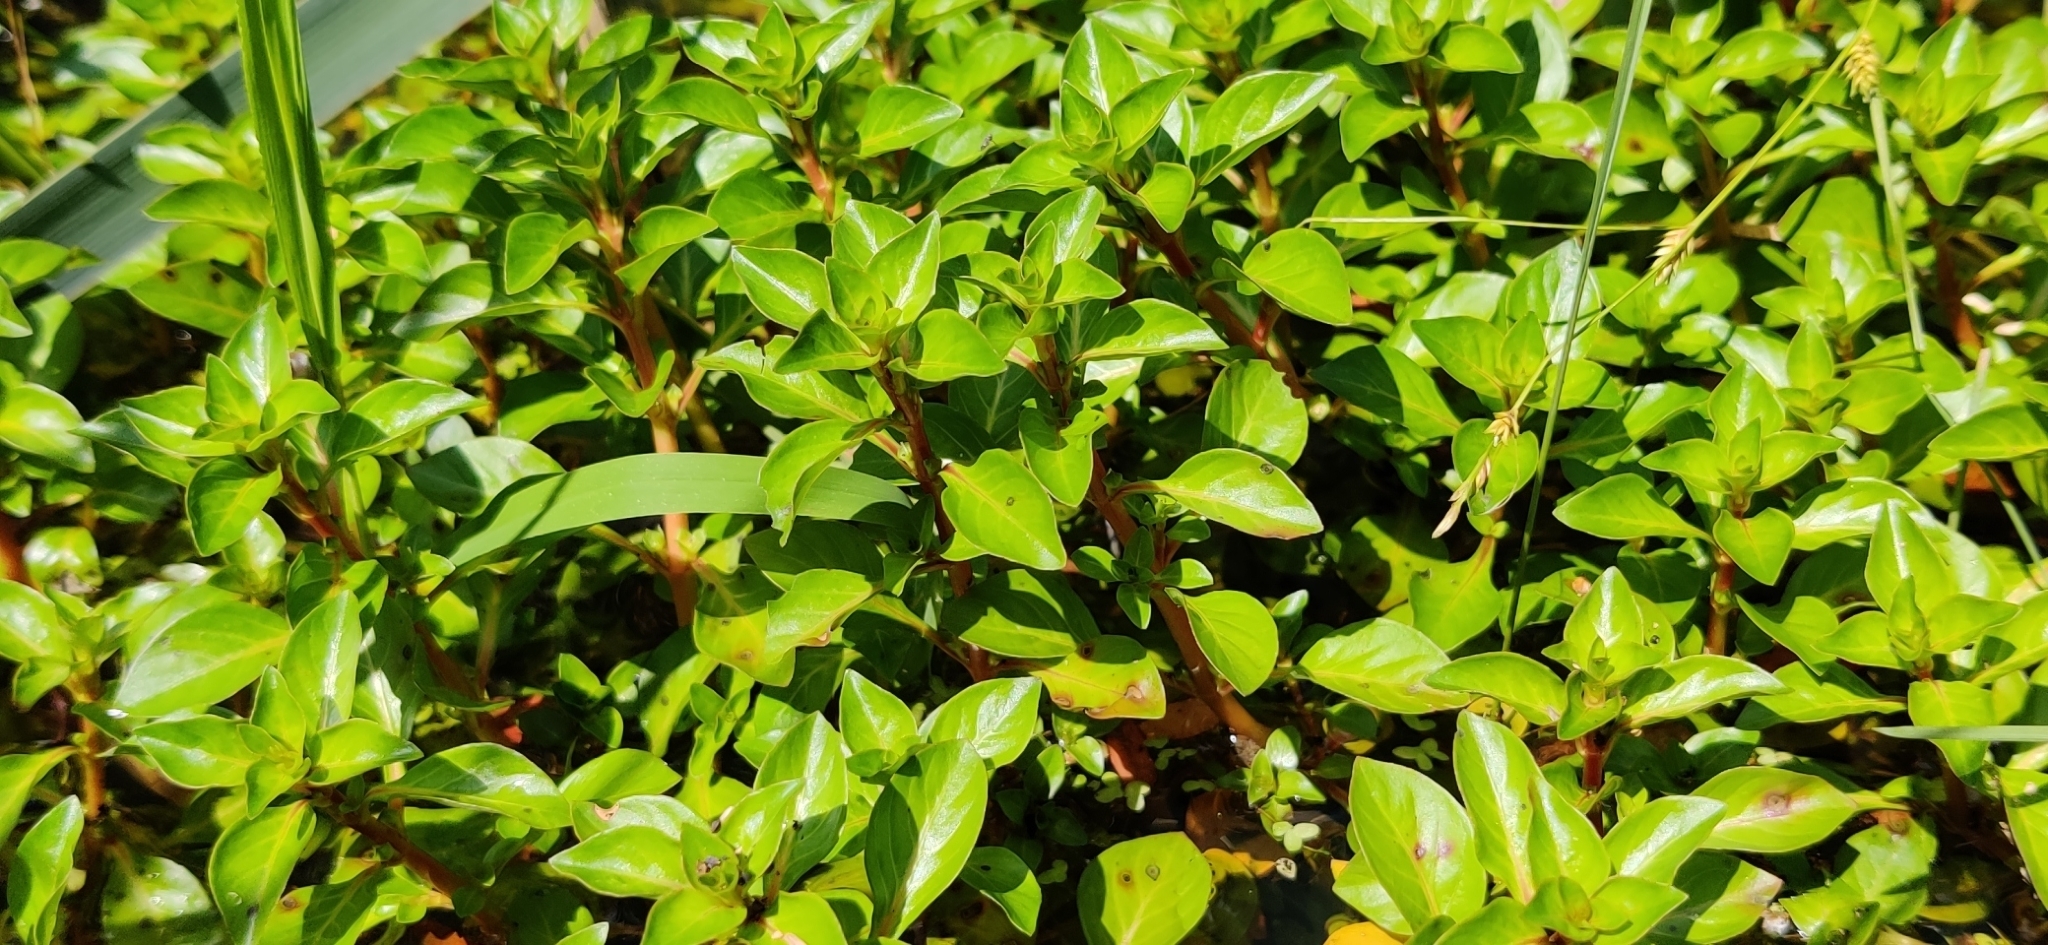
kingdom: Plantae
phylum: Tracheophyta
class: Magnoliopsida
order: Myrtales
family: Onagraceae
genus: Ludwigia
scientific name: Ludwigia palustris
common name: Hampshire-purslane
